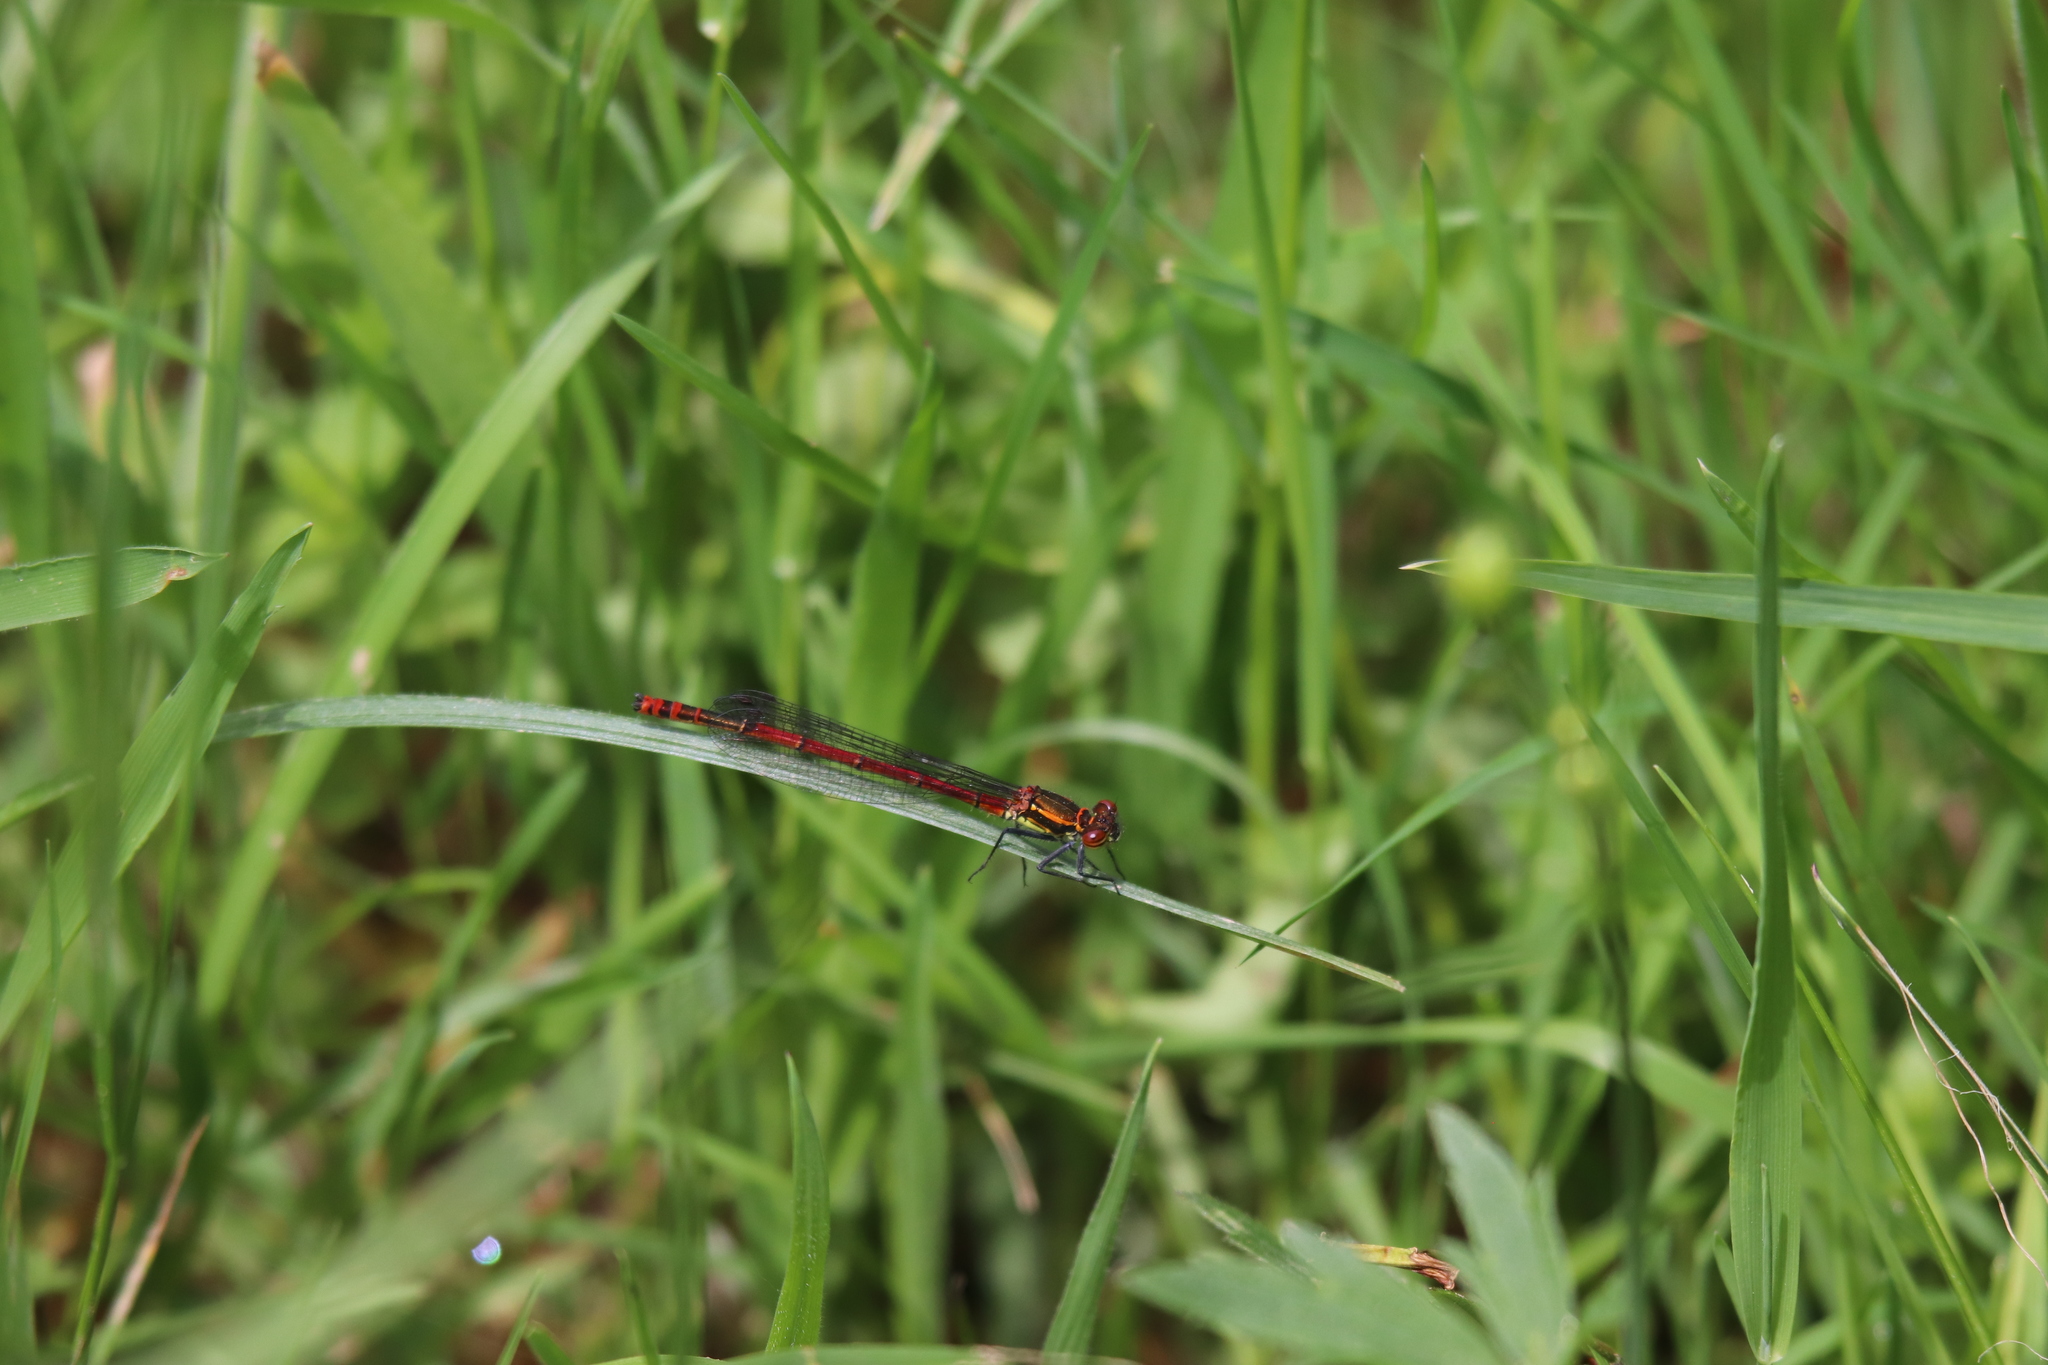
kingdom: Animalia
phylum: Arthropoda
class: Insecta
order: Odonata
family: Coenagrionidae
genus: Pyrrhosoma
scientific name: Pyrrhosoma nymphula
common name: Large red damsel
